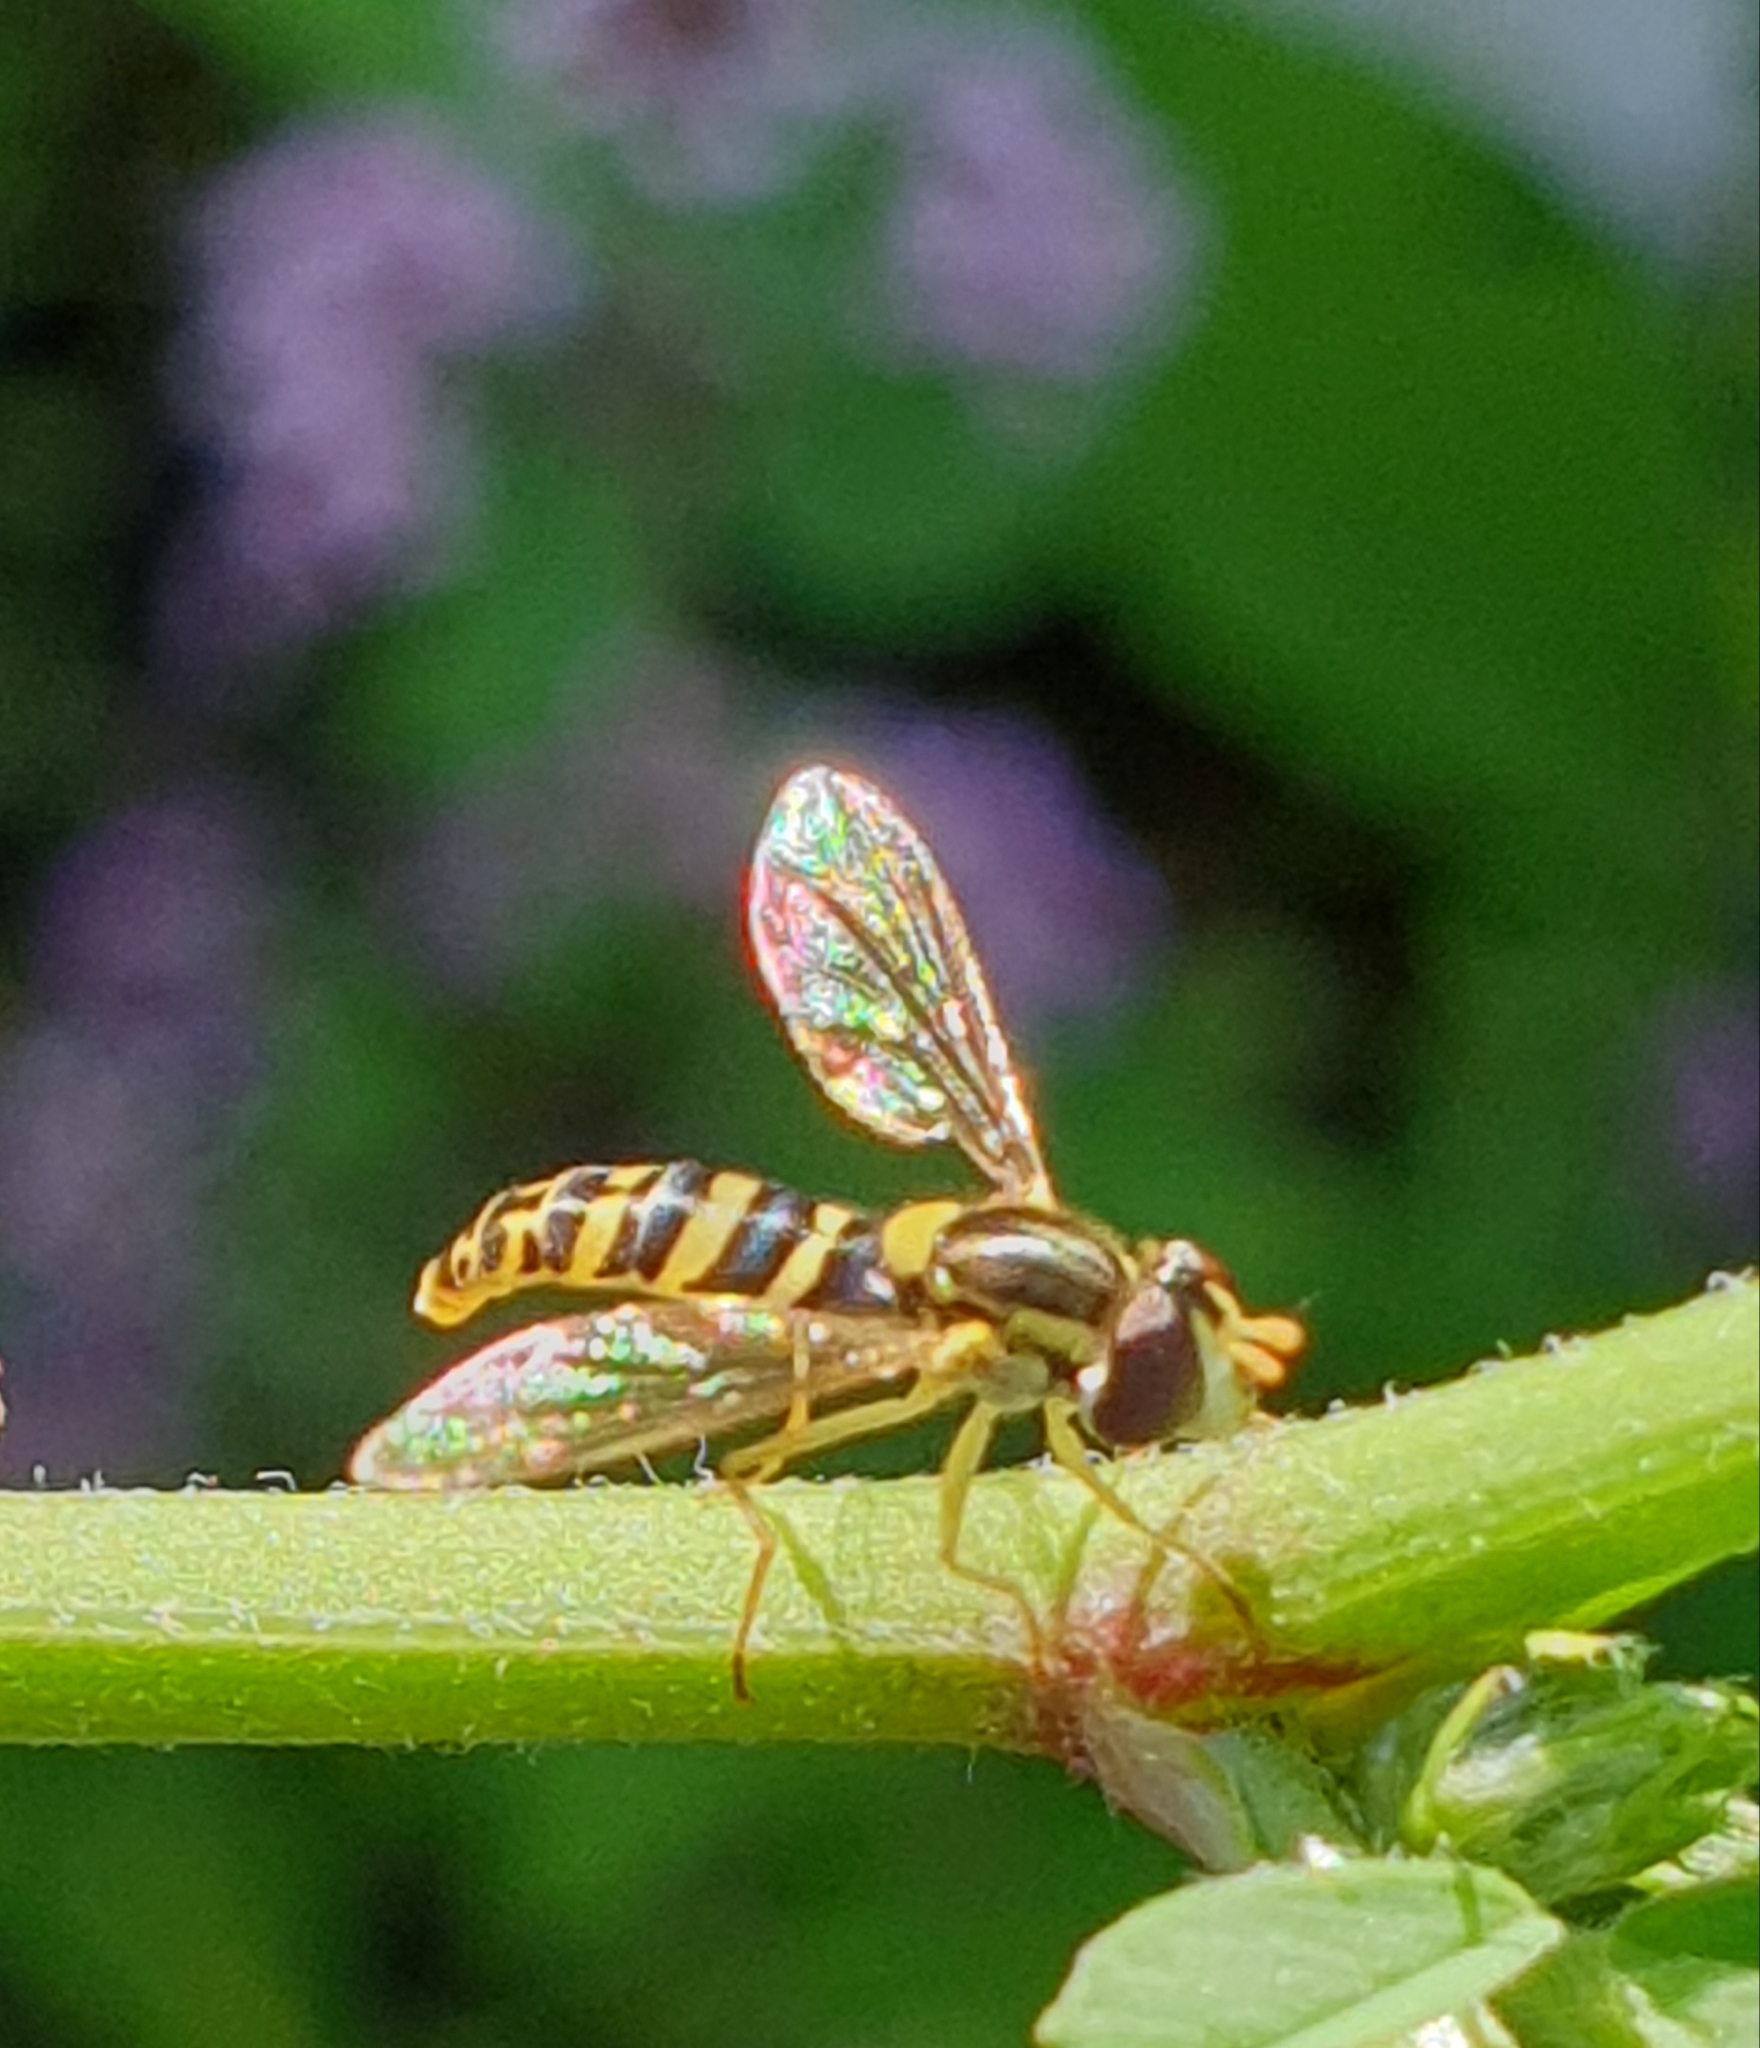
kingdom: Animalia
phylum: Arthropoda
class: Insecta
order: Diptera
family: Syrphidae
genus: Sphaerophoria
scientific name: Sphaerophoria
